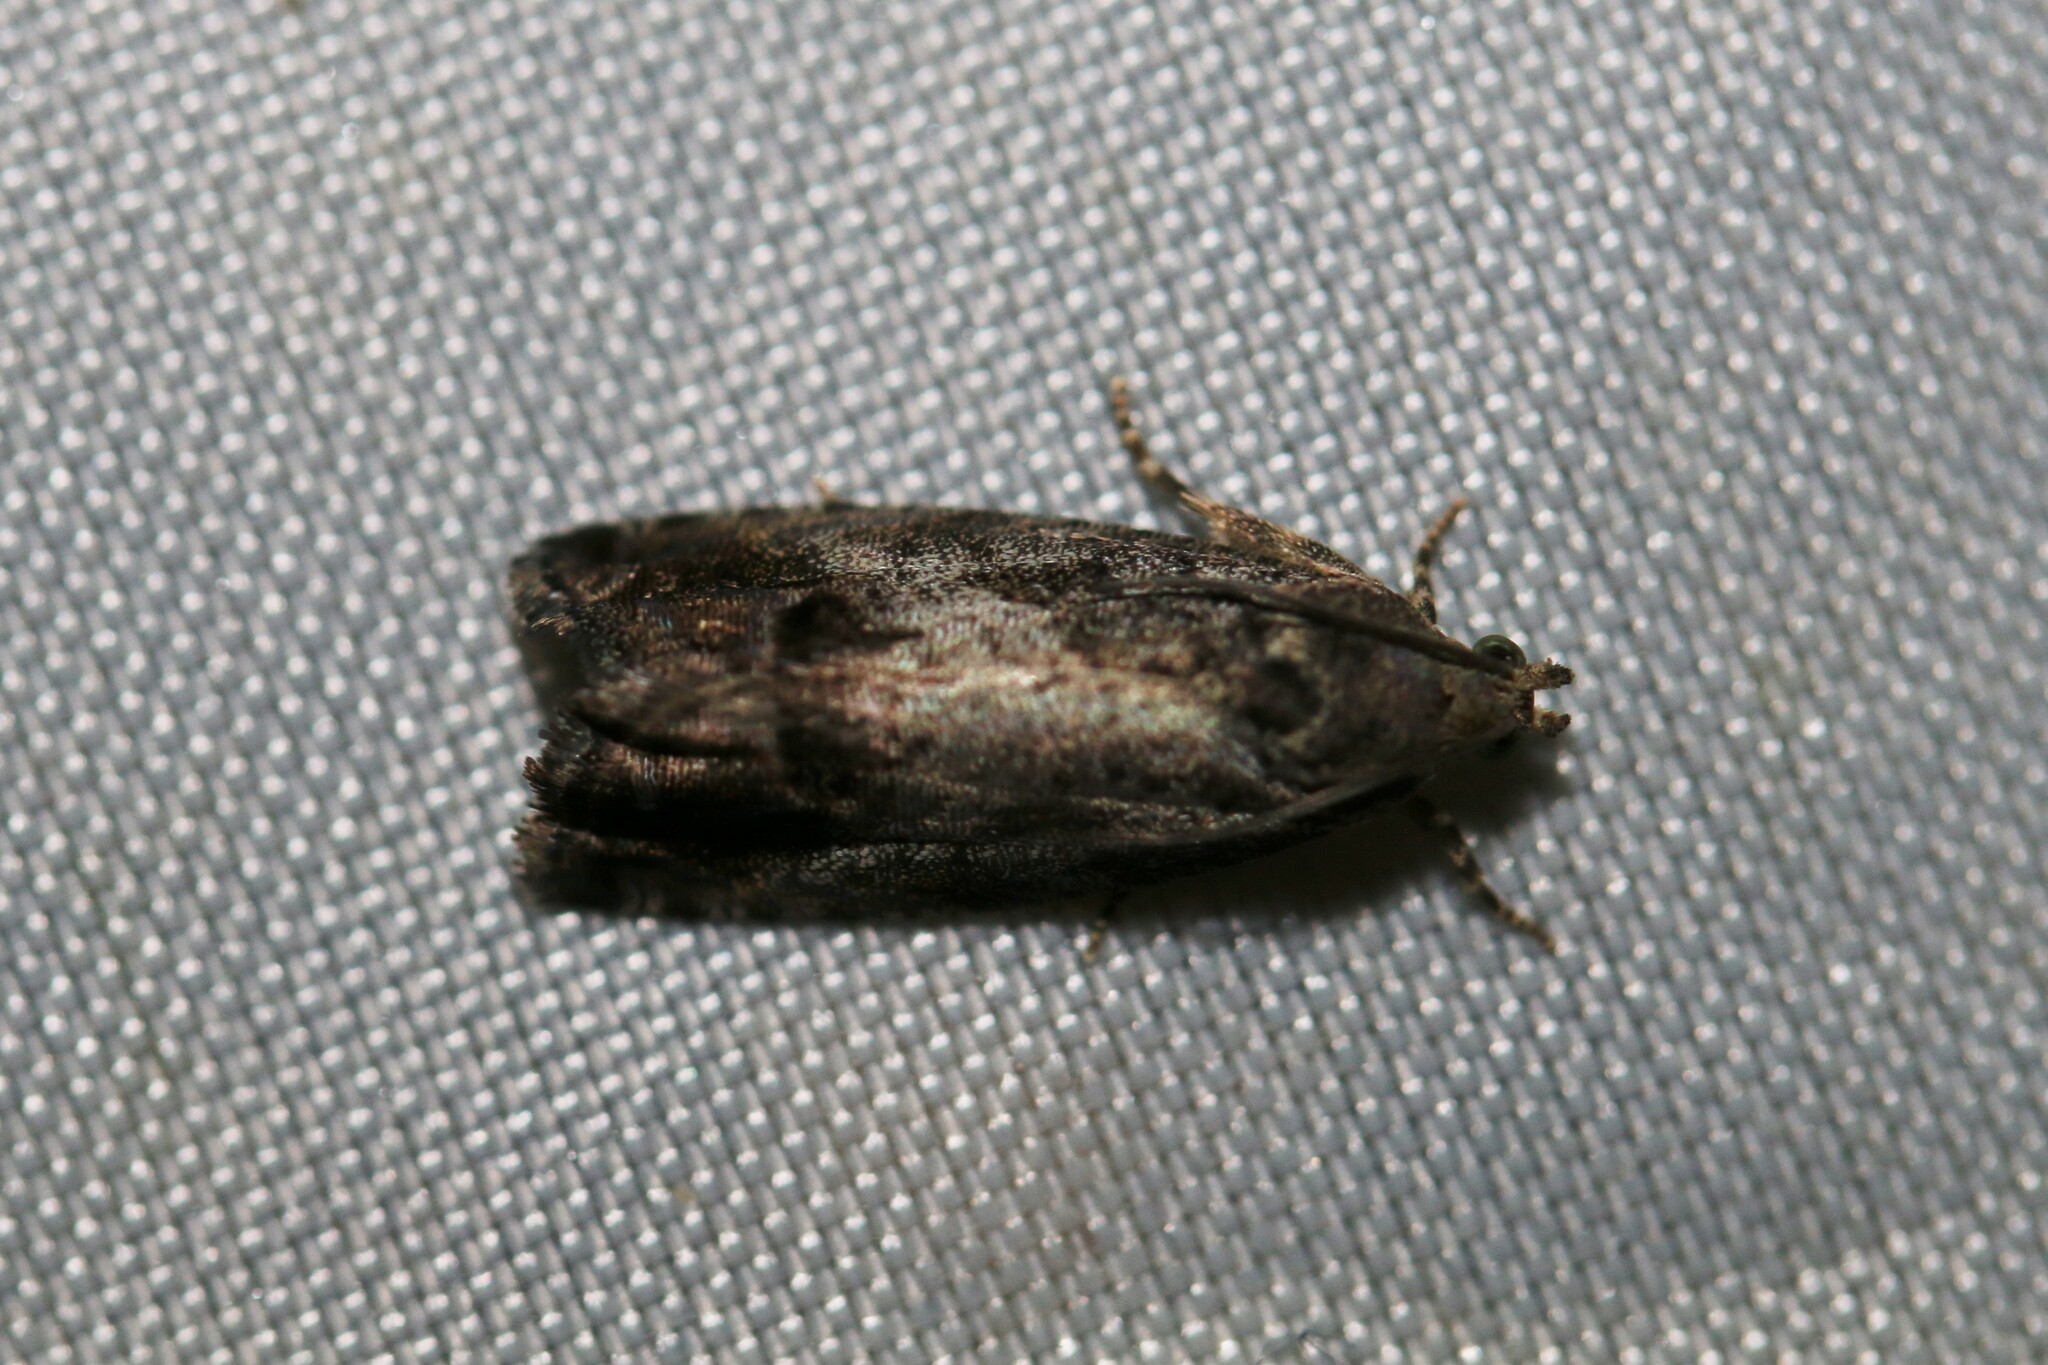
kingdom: Animalia
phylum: Arthropoda
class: Insecta
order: Lepidoptera
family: Tortricidae
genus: Cydia
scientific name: Cydia splendana
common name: De: kastanienwickler, eichenwickler es: oruga de la castaña fr: carpocapse des châtaignes it: cidia o tortrice tardiva delle castagne pt: bichado das castanhas gb: acorn moth, chestnut fruit tortrix
